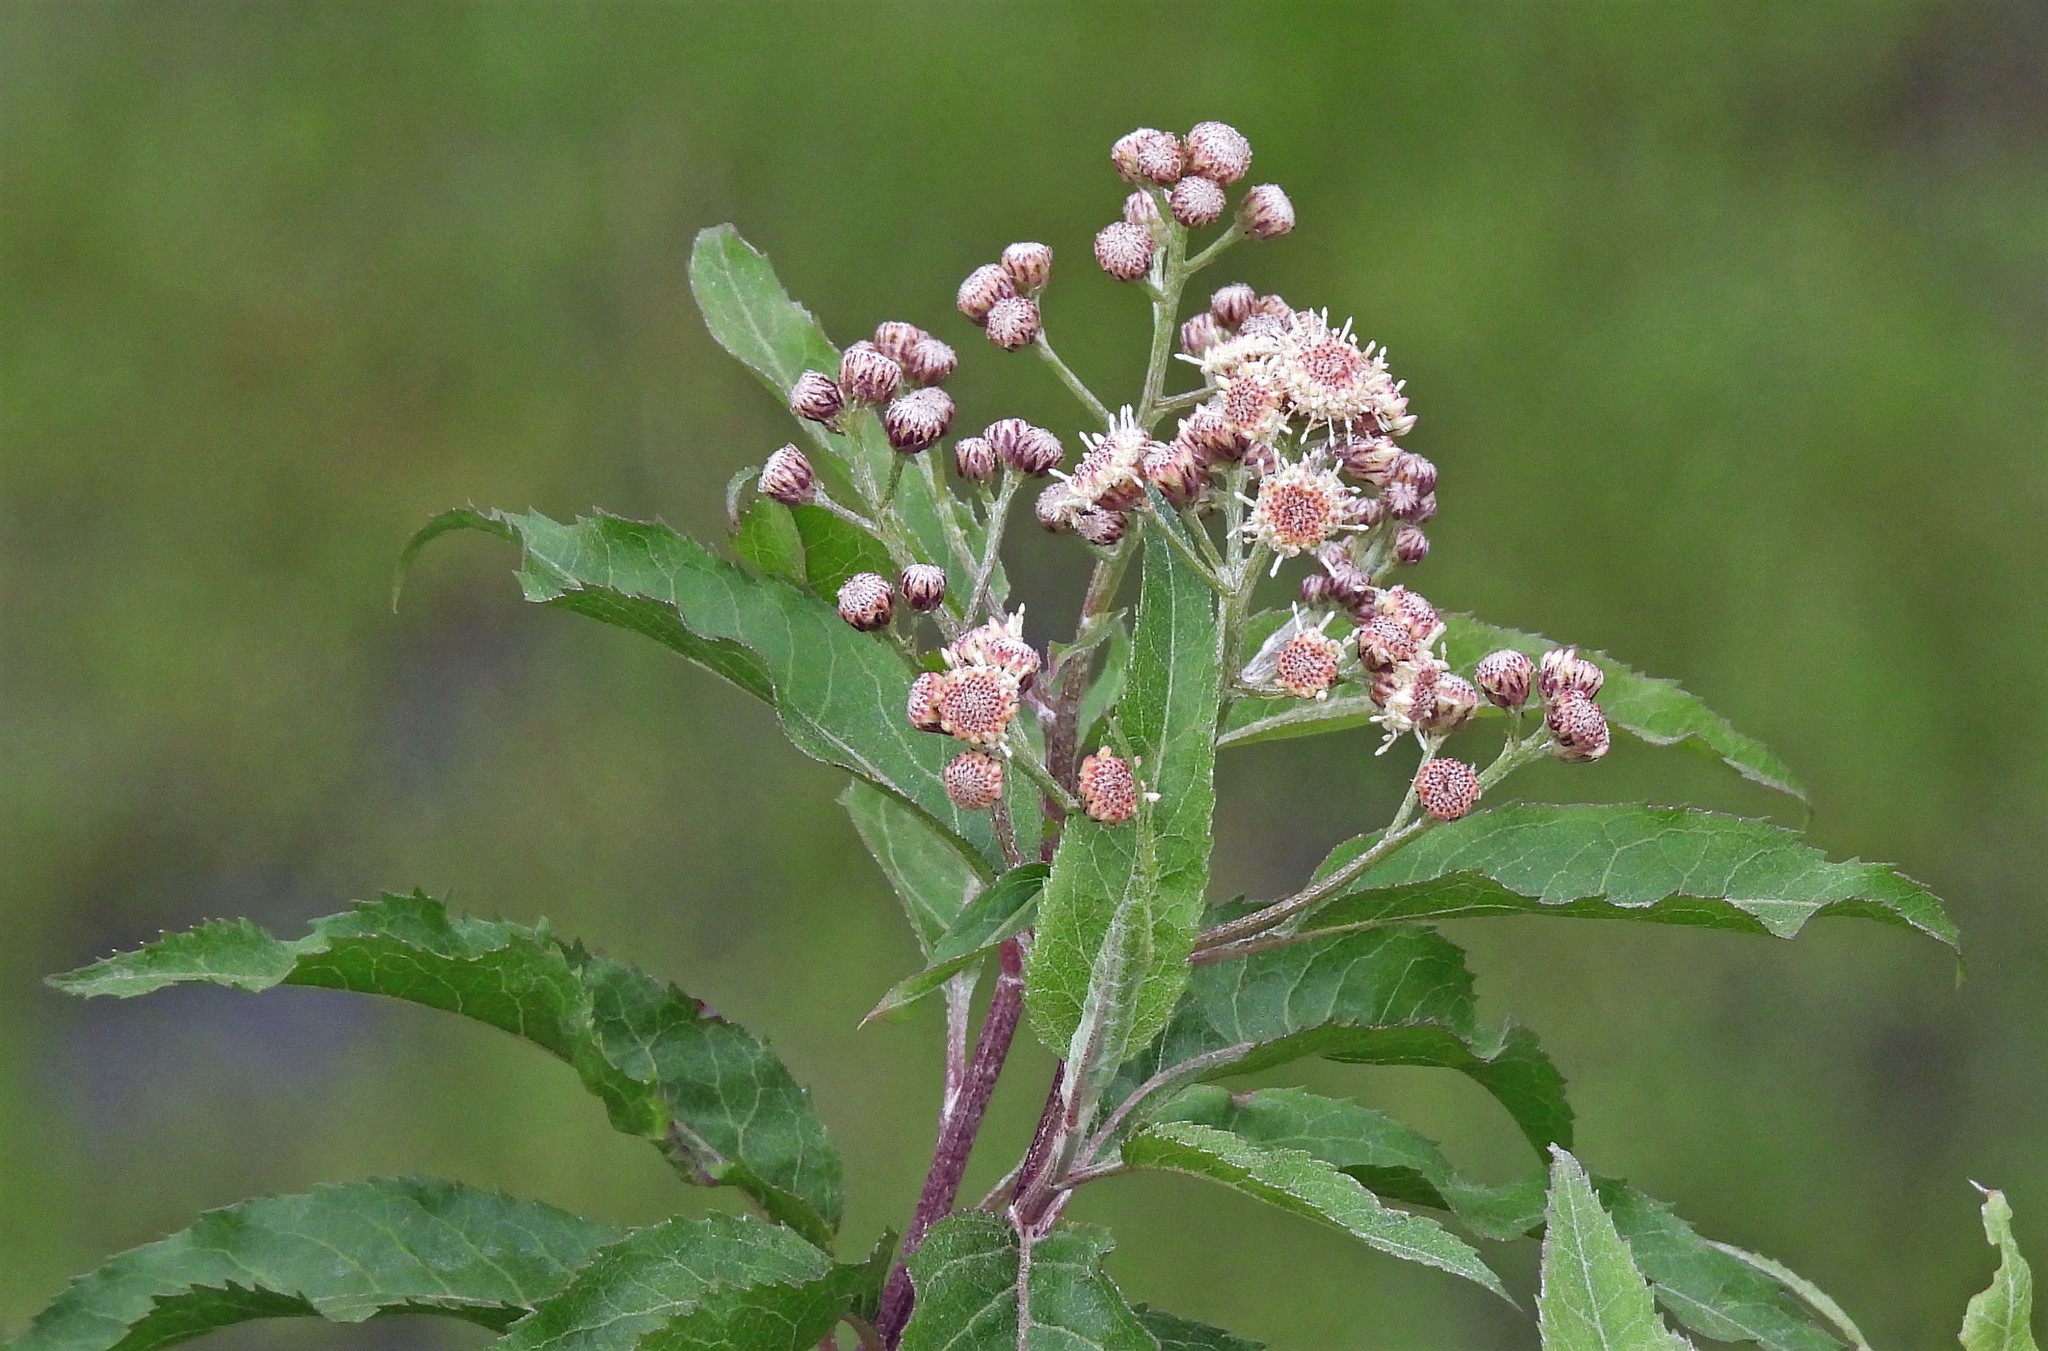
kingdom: Plantae
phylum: Tracheophyta
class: Magnoliopsida
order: Asterales
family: Asteraceae
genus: Baccharis
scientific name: Baccharis pentlandii
